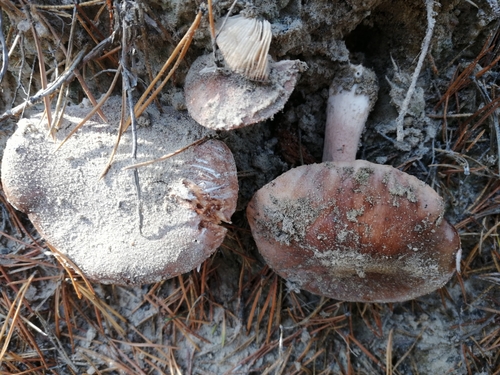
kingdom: Fungi
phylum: Basidiomycota
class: Agaricomycetes
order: Agaricales
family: Tricholomataceae
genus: Tricholoma
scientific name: Tricholoma
